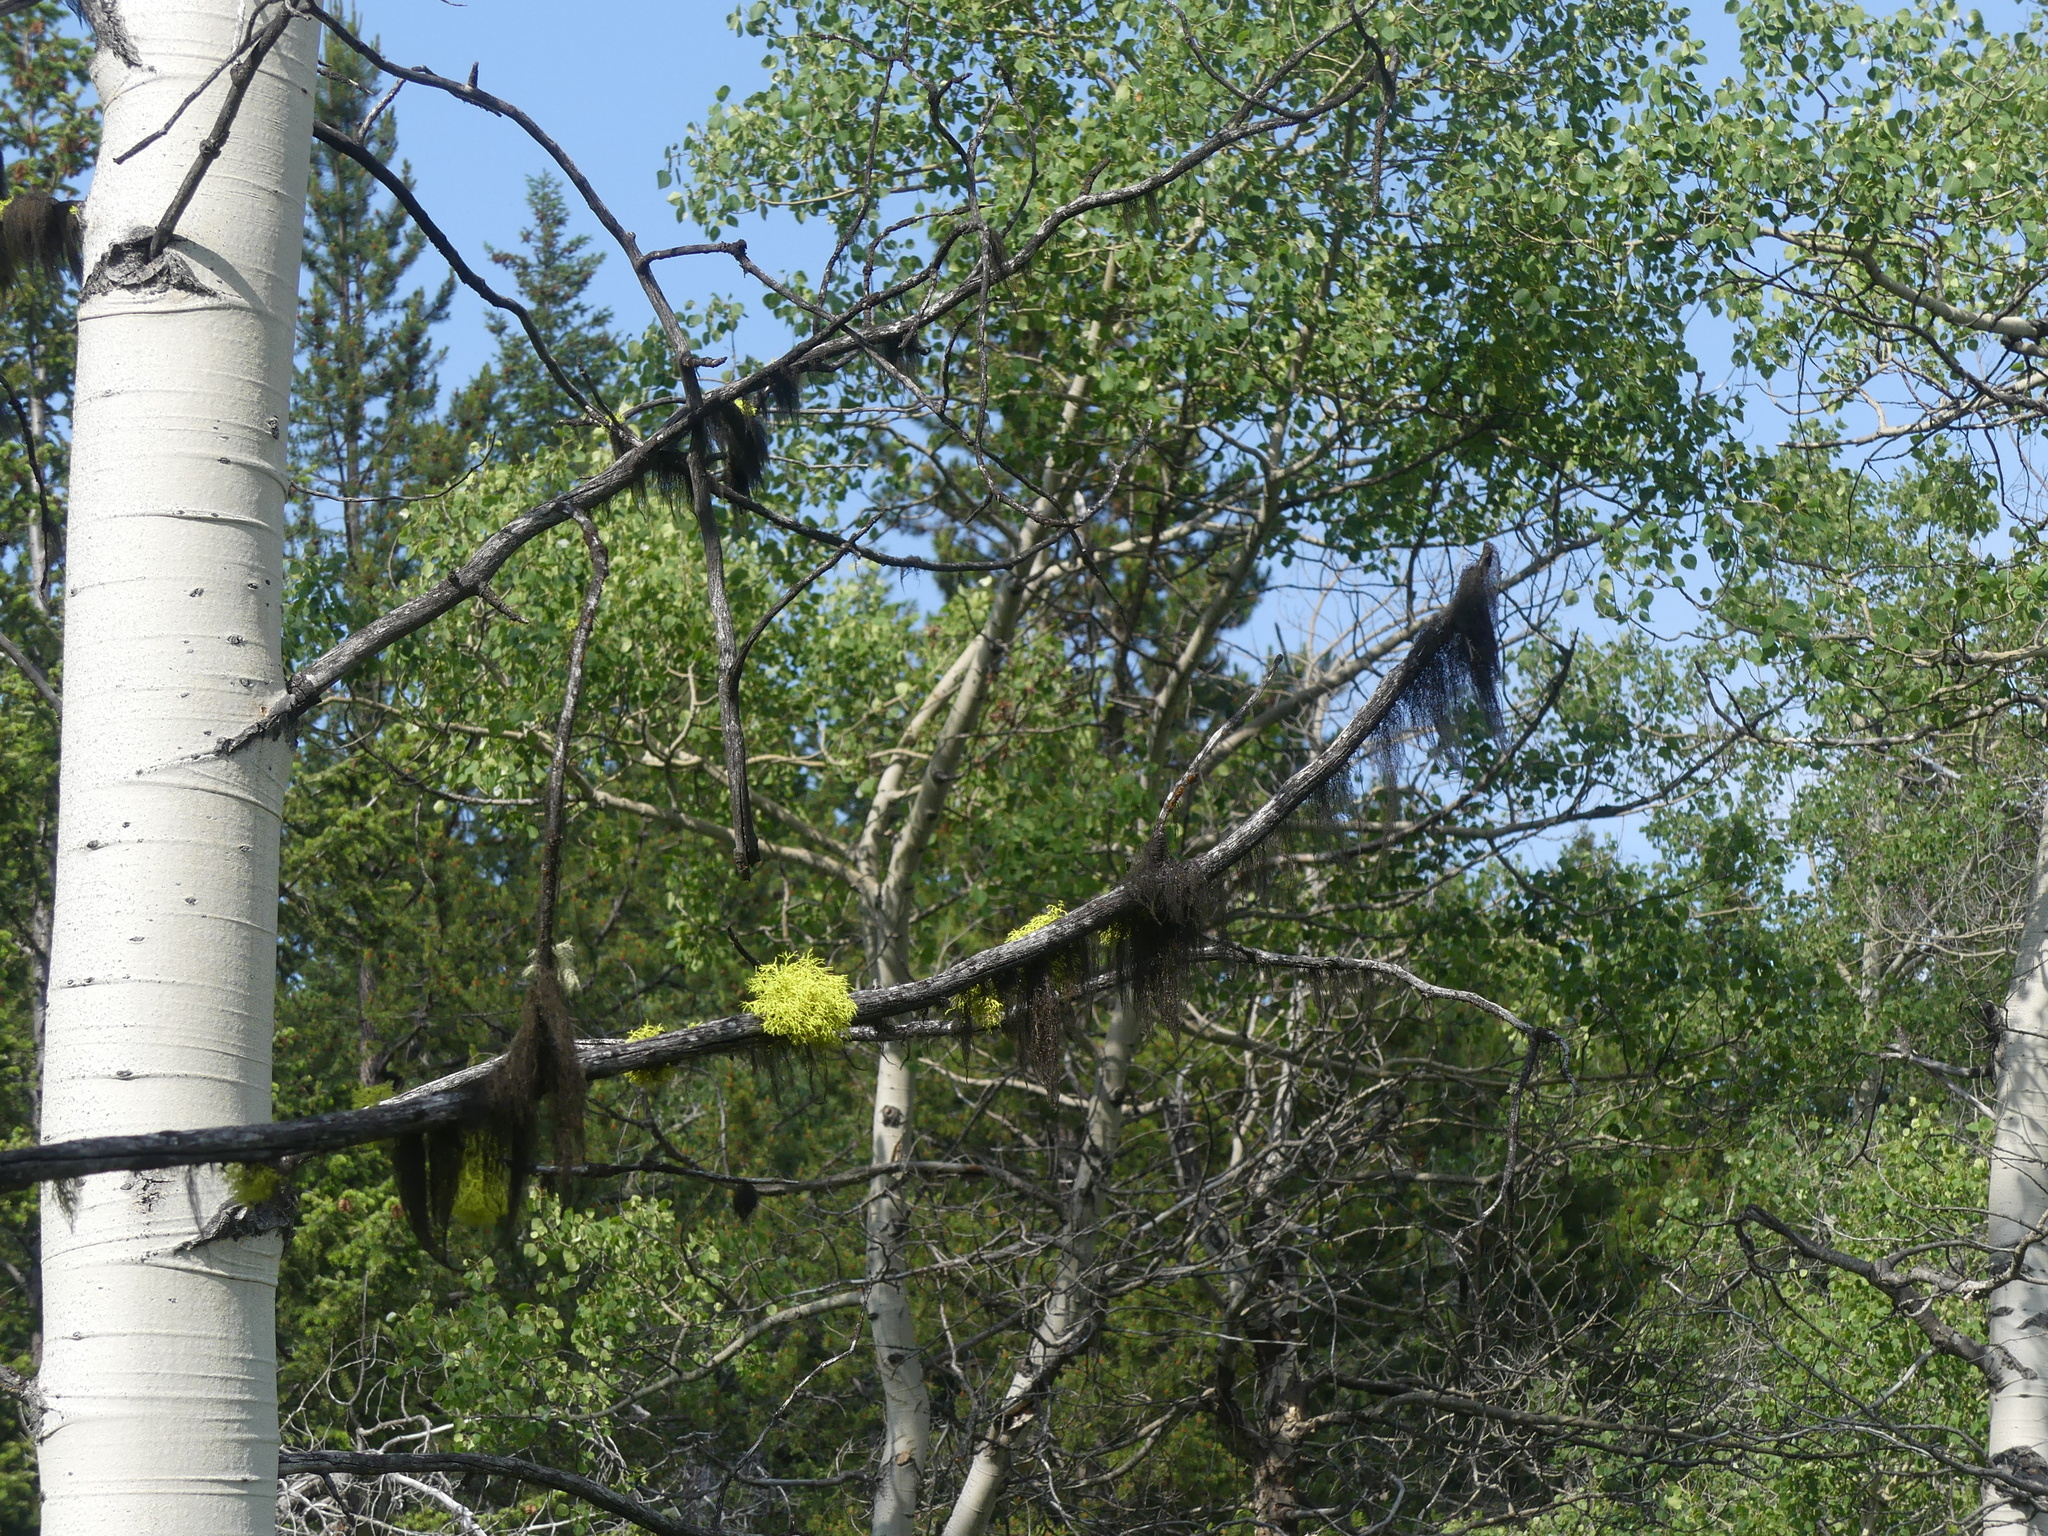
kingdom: Fungi
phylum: Ascomycota
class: Lecanoromycetes
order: Lecanorales
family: Parmeliaceae
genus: Letharia
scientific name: Letharia vulpina
